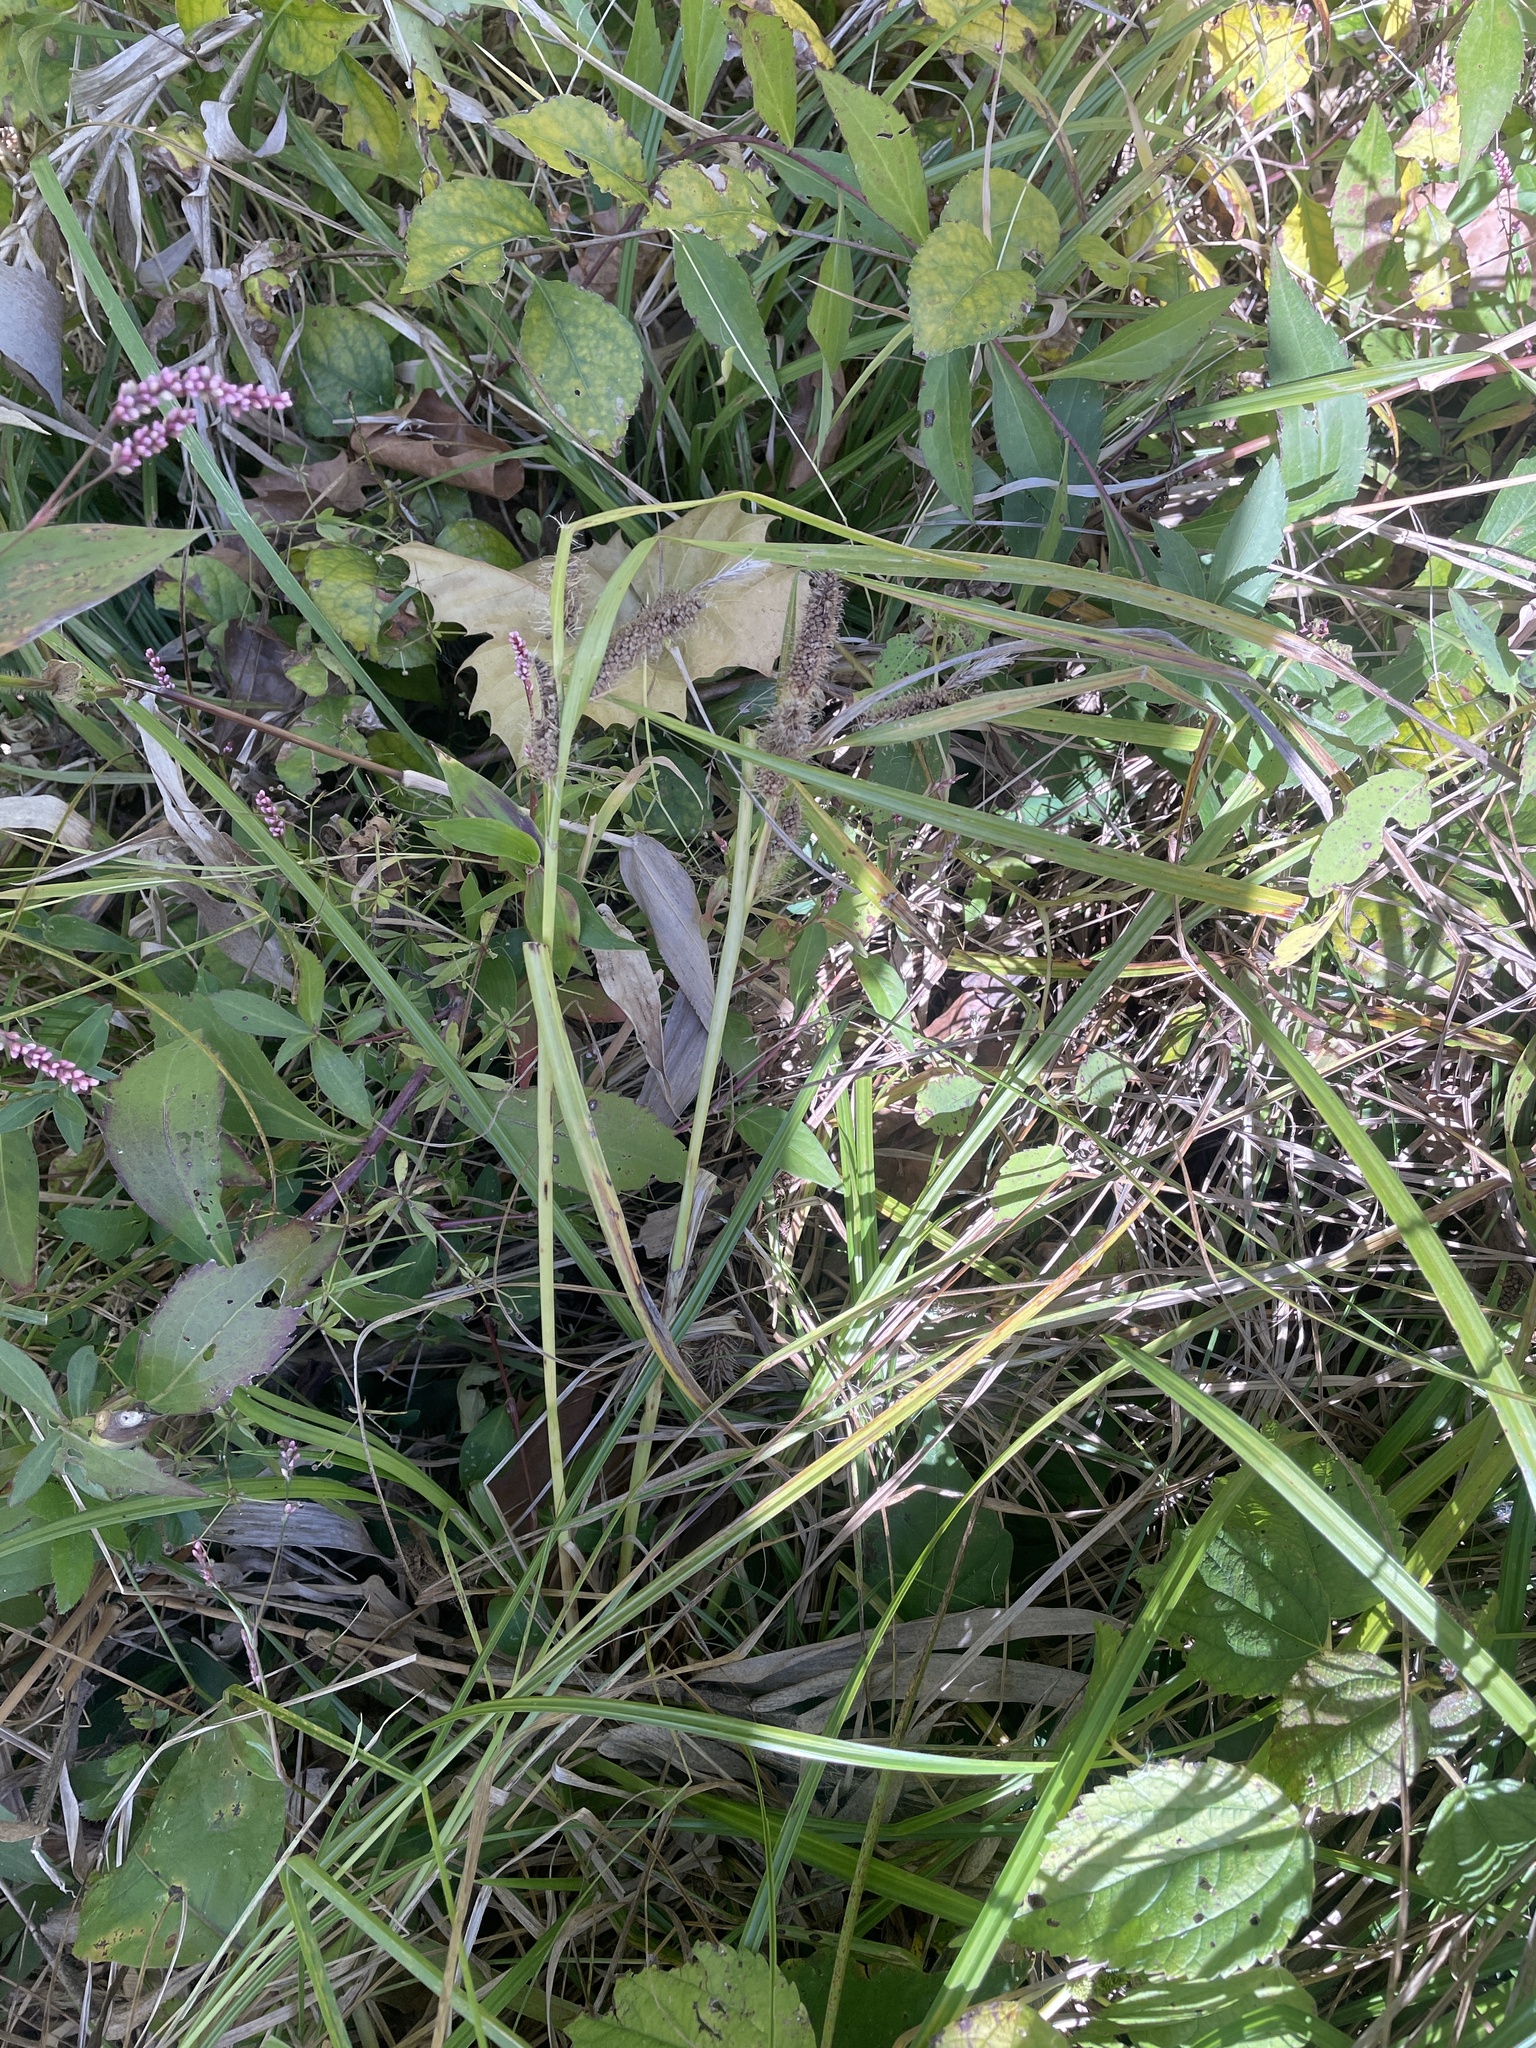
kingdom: Plantae
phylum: Tracheophyta
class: Liliopsida
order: Poales
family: Cyperaceae
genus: Carex
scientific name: Carex frankii
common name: Frank's sedge
